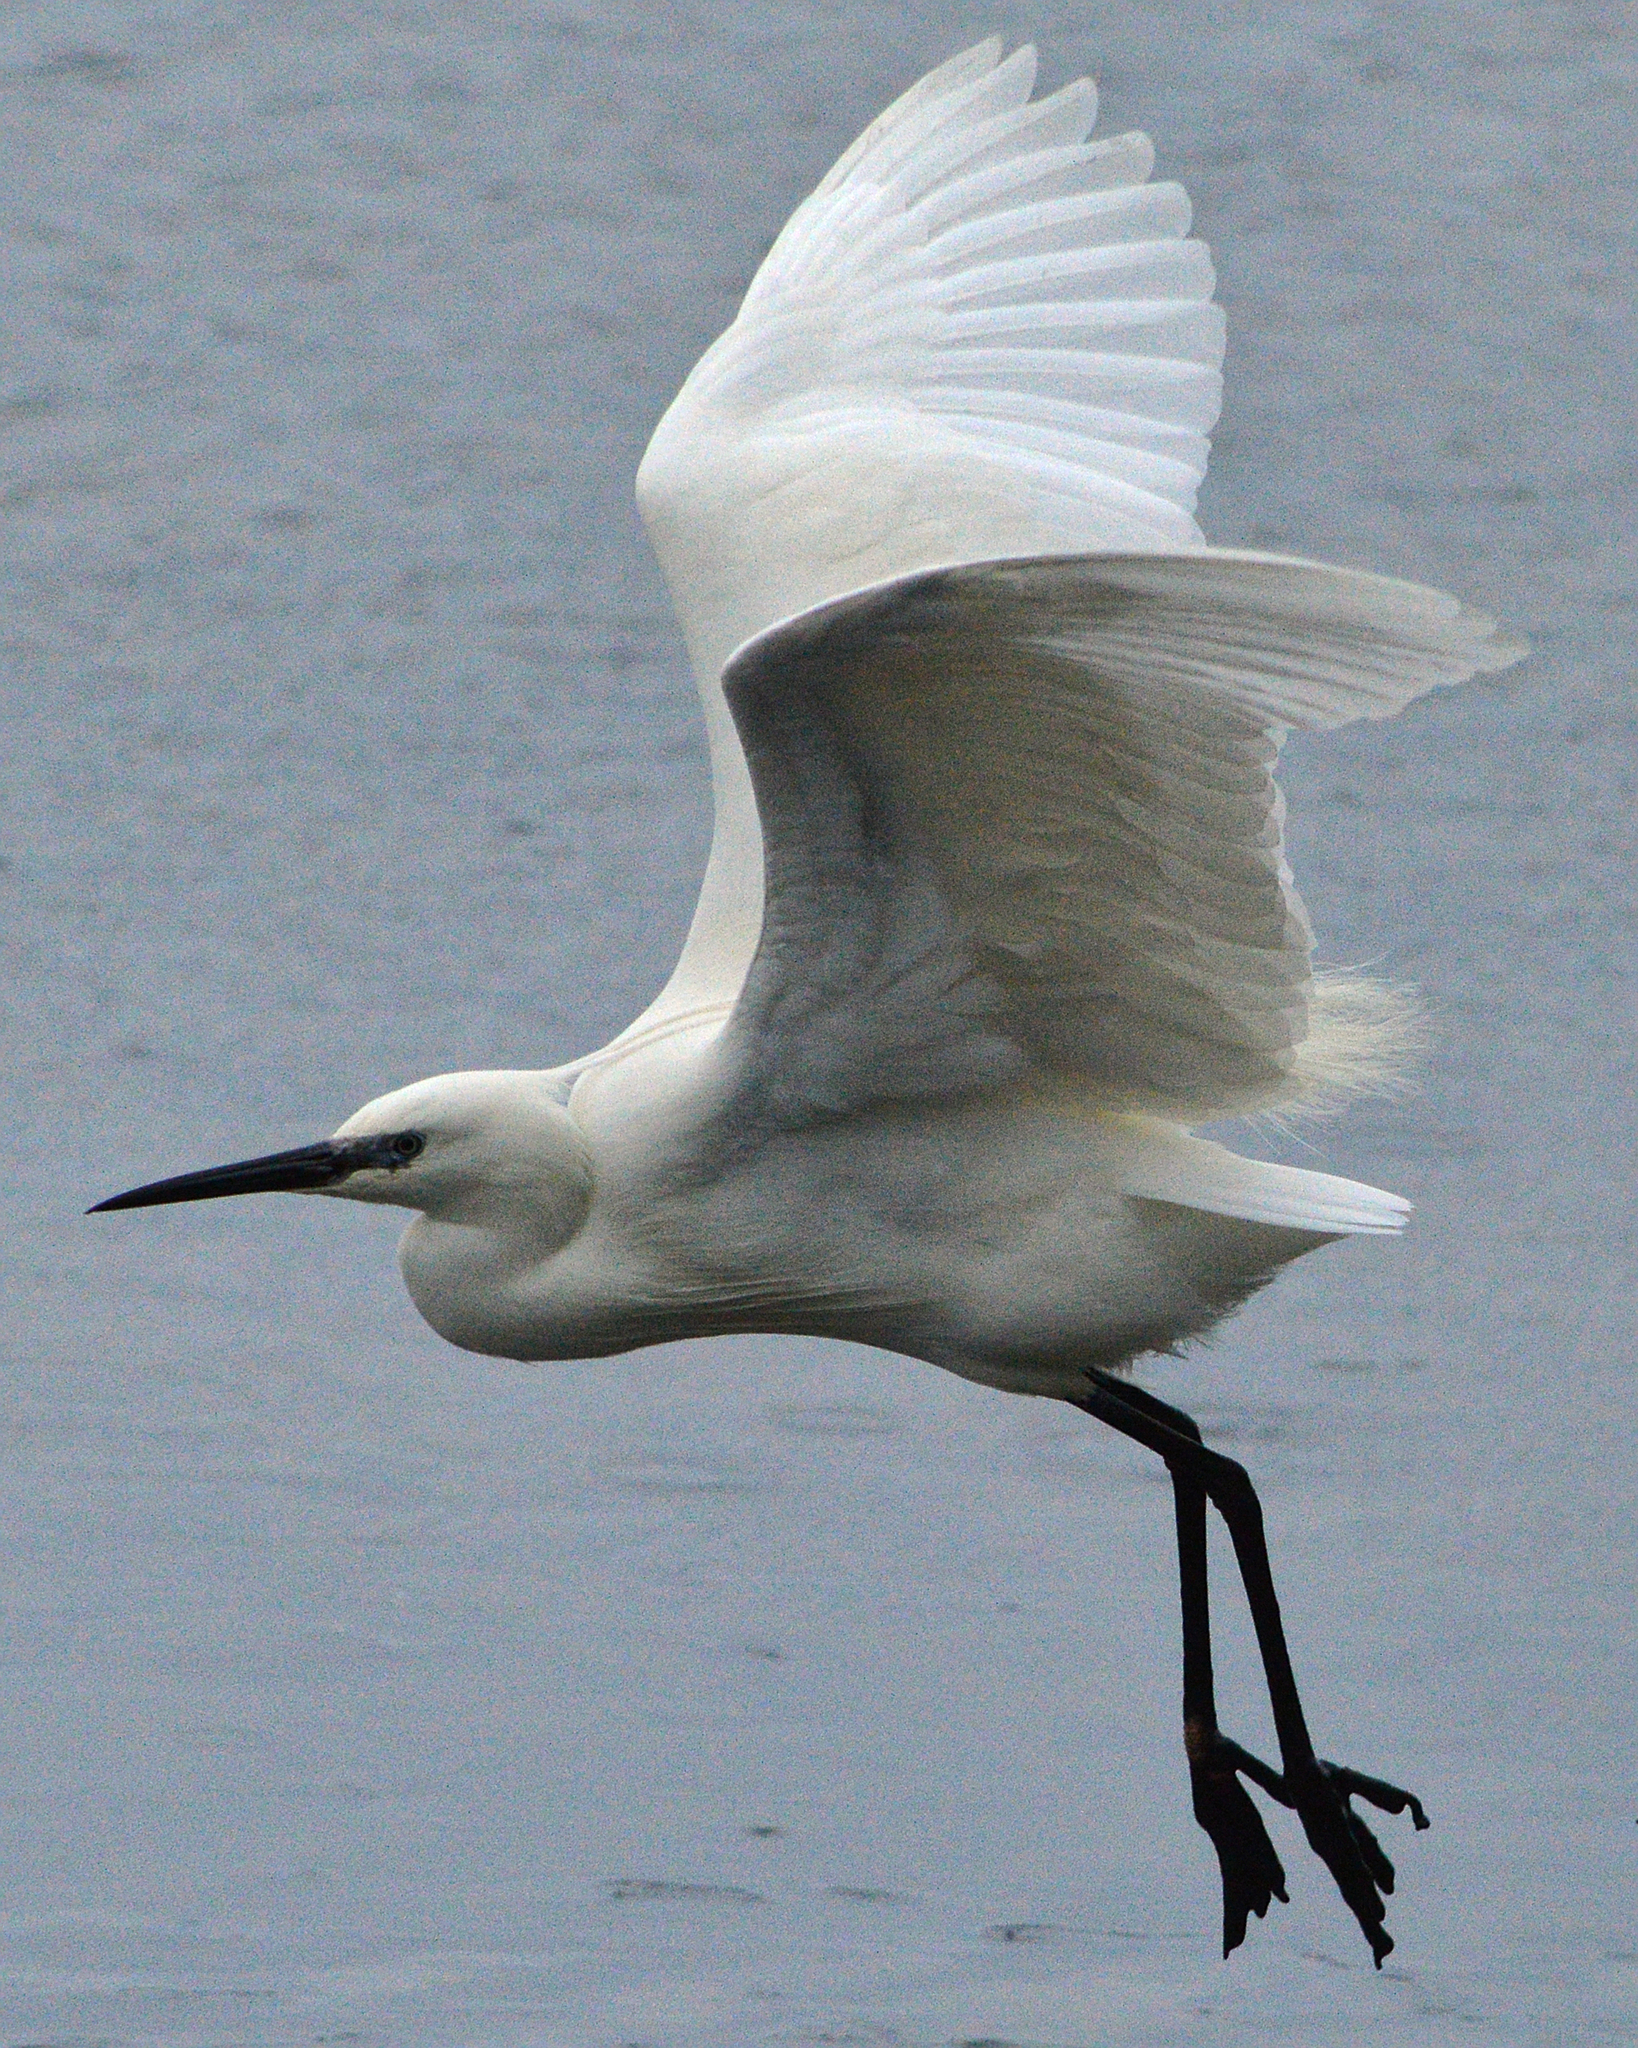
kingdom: Animalia
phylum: Chordata
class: Aves
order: Pelecaniformes
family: Ardeidae
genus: Egretta
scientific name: Egretta garzetta
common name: Little egret
